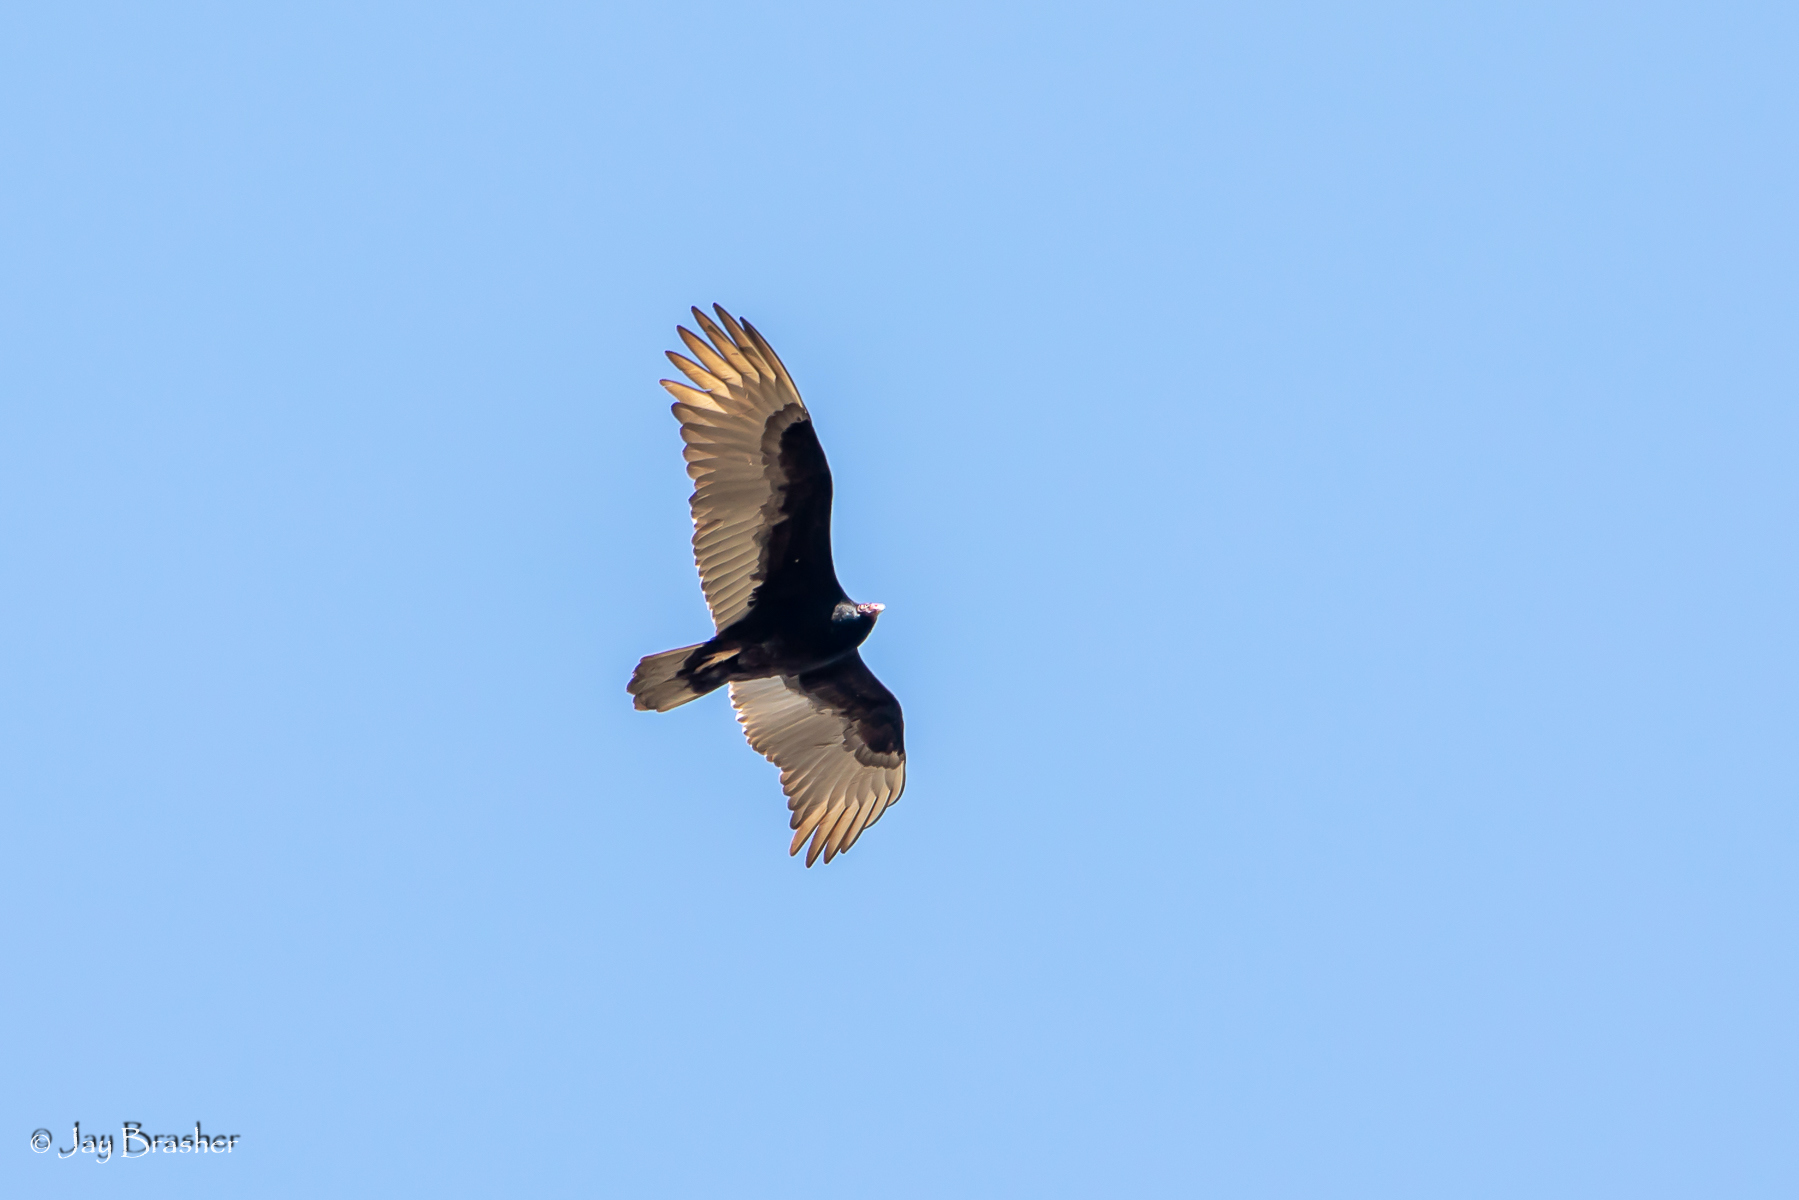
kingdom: Animalia
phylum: Chordata
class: Aves
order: Accipitriformes
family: Cathartidae
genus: Cathartes
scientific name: Cathartes aura
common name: Turkey vulture
